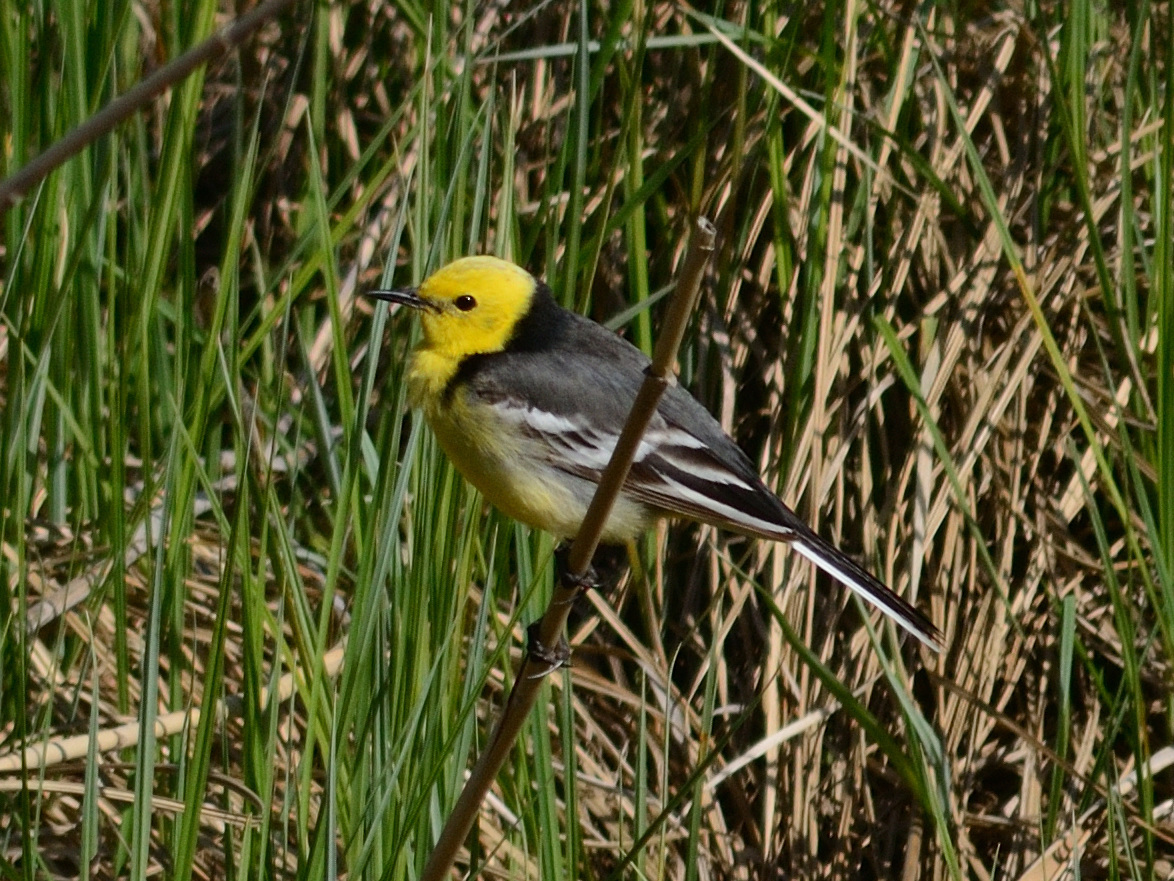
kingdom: Animalia
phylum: Chordata
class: Aves
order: Passeriformes
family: Motacillidae
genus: Motacilla
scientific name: Motacilla citreola
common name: Citrine wagtail
